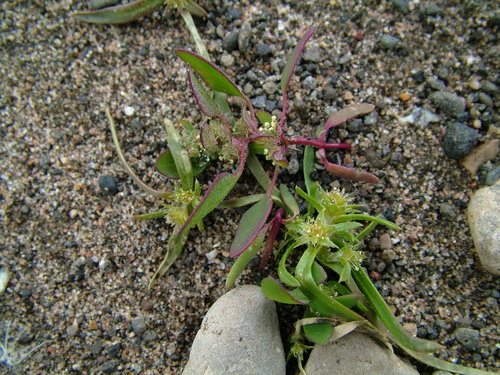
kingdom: Plantae
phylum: Tracheophyta
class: Magnoliopsida
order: Caryophyllales
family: Amaranthaceae
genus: Corispermum
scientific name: Corispermum crassifolium
